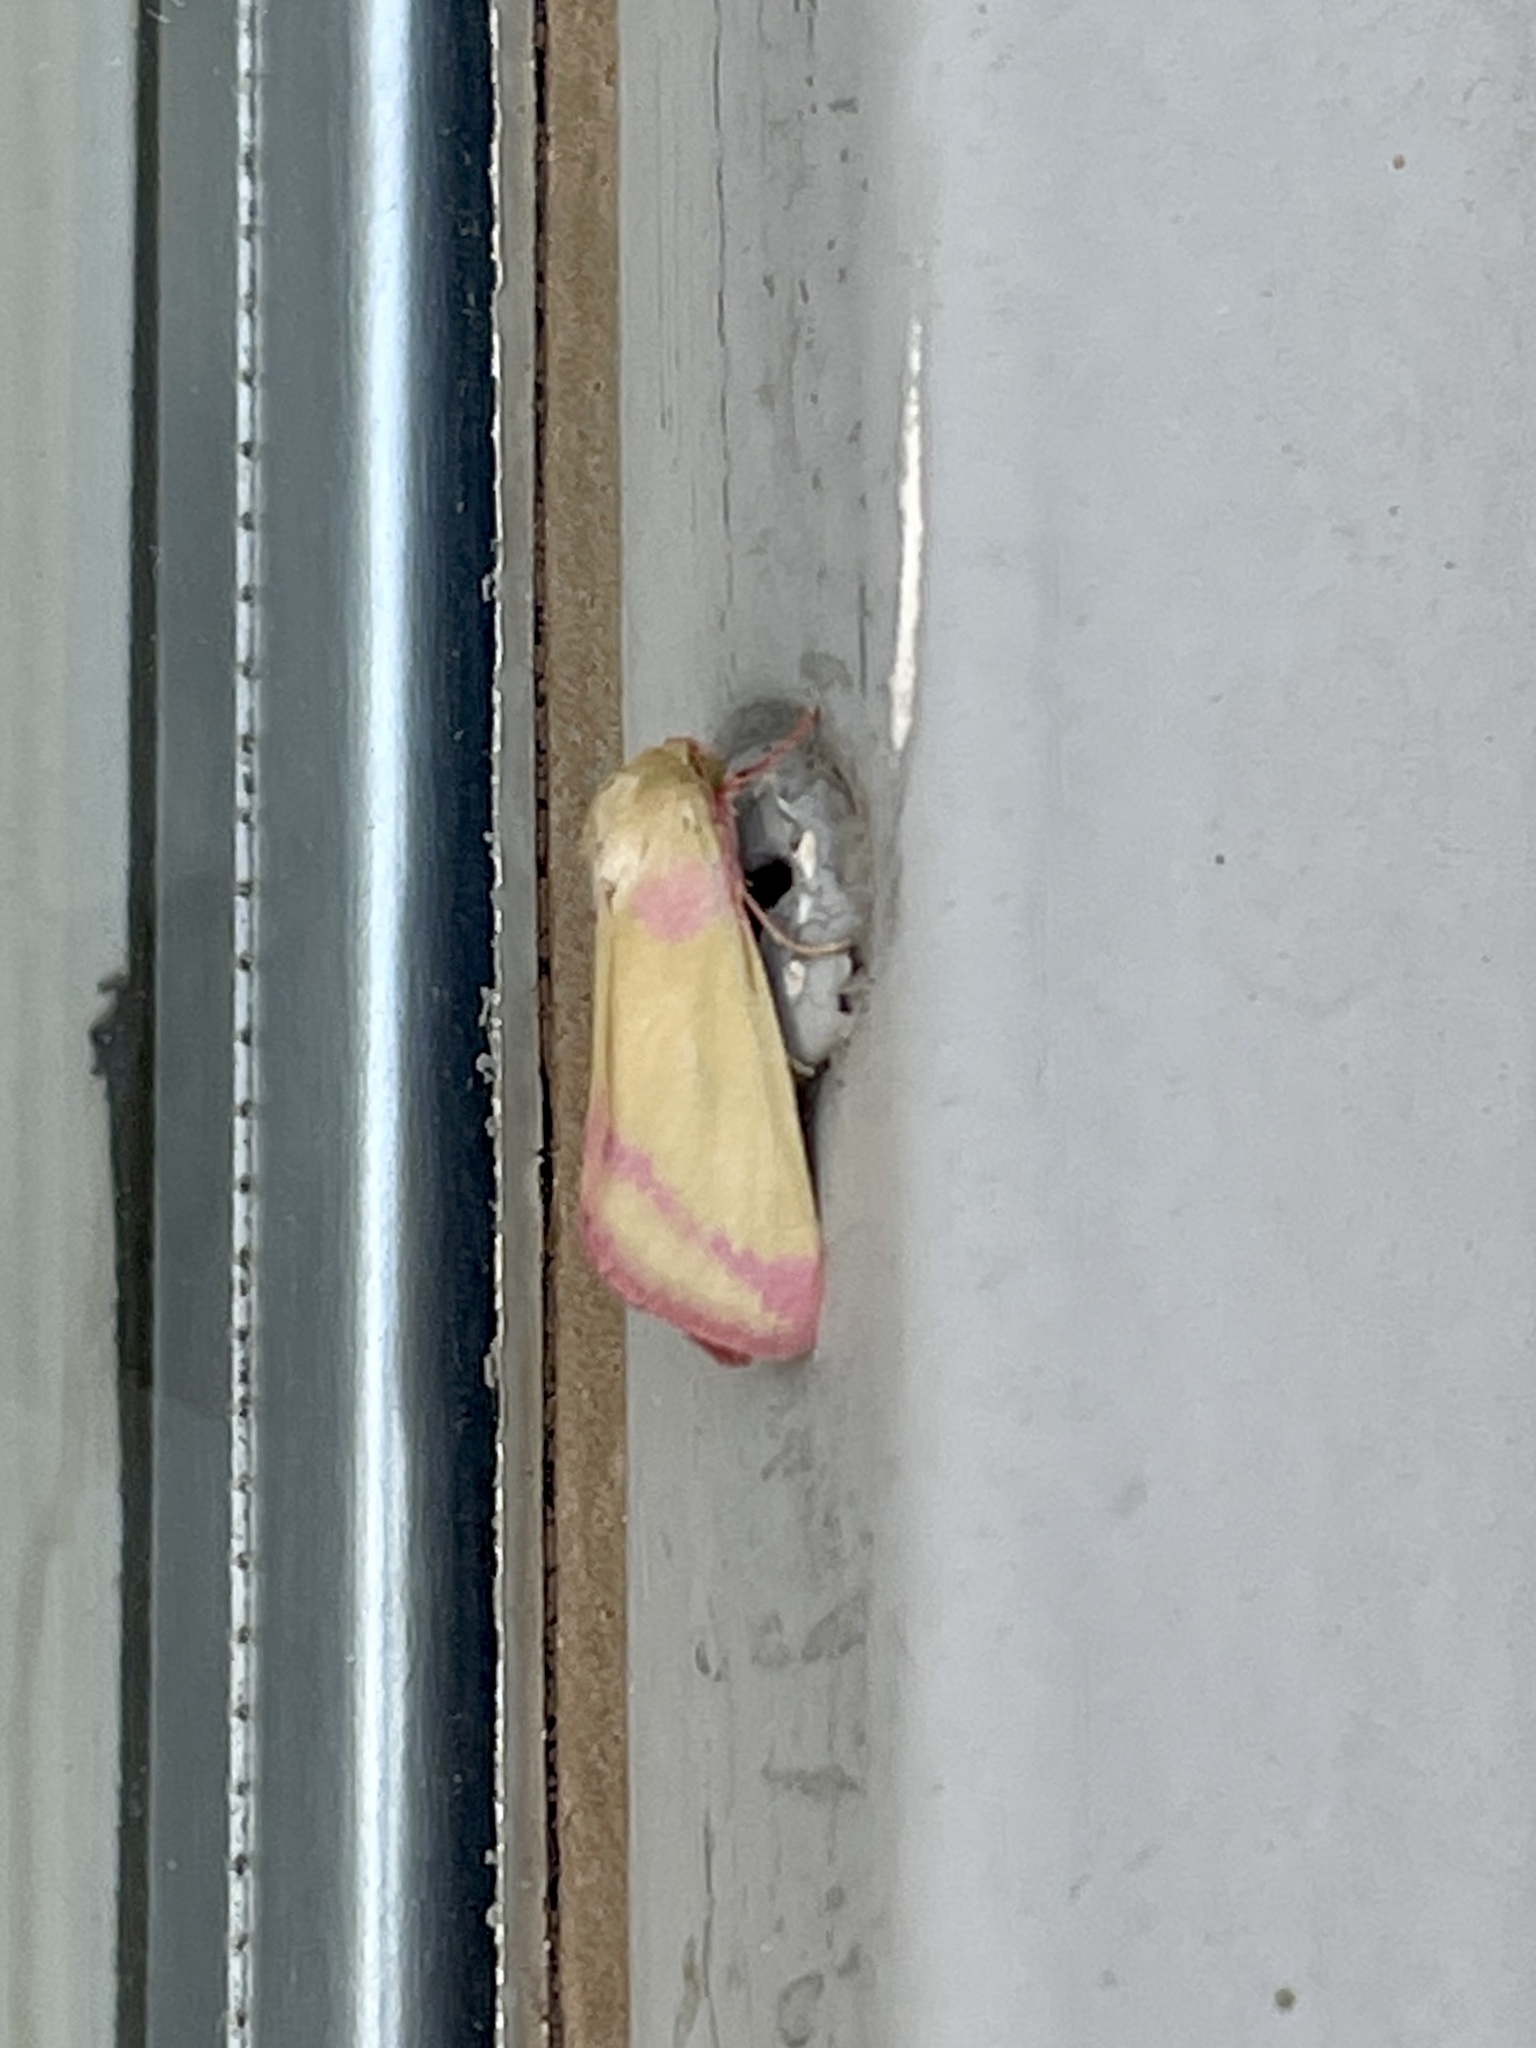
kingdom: Animalia
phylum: Arthropoda
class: Insecta
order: Lepidoptera
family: Noctuidae
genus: Heliocheilus
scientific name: Heliocheilus toralis
